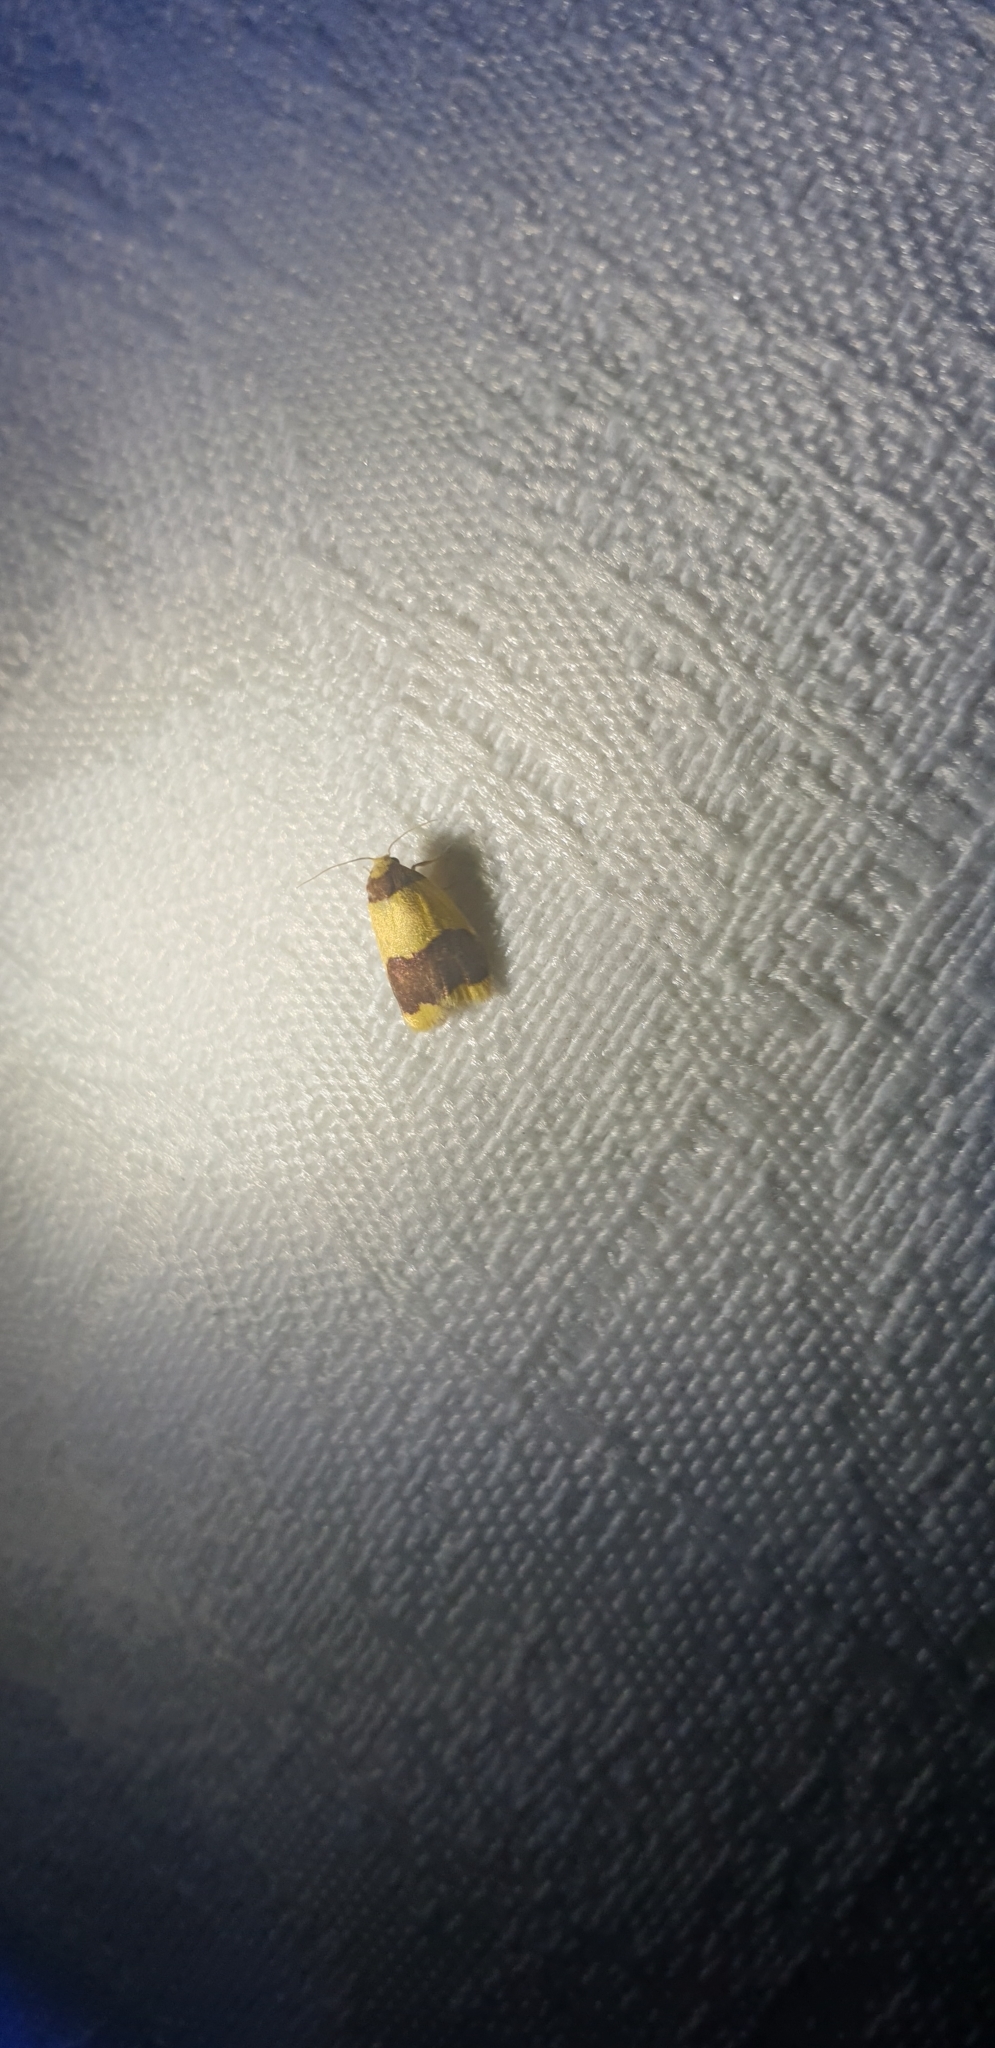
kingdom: Animalia
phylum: Arthropoda
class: Insecta
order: Lepidoptera
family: Erebidae
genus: Heterallactis
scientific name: Heterallactis microchrysa
